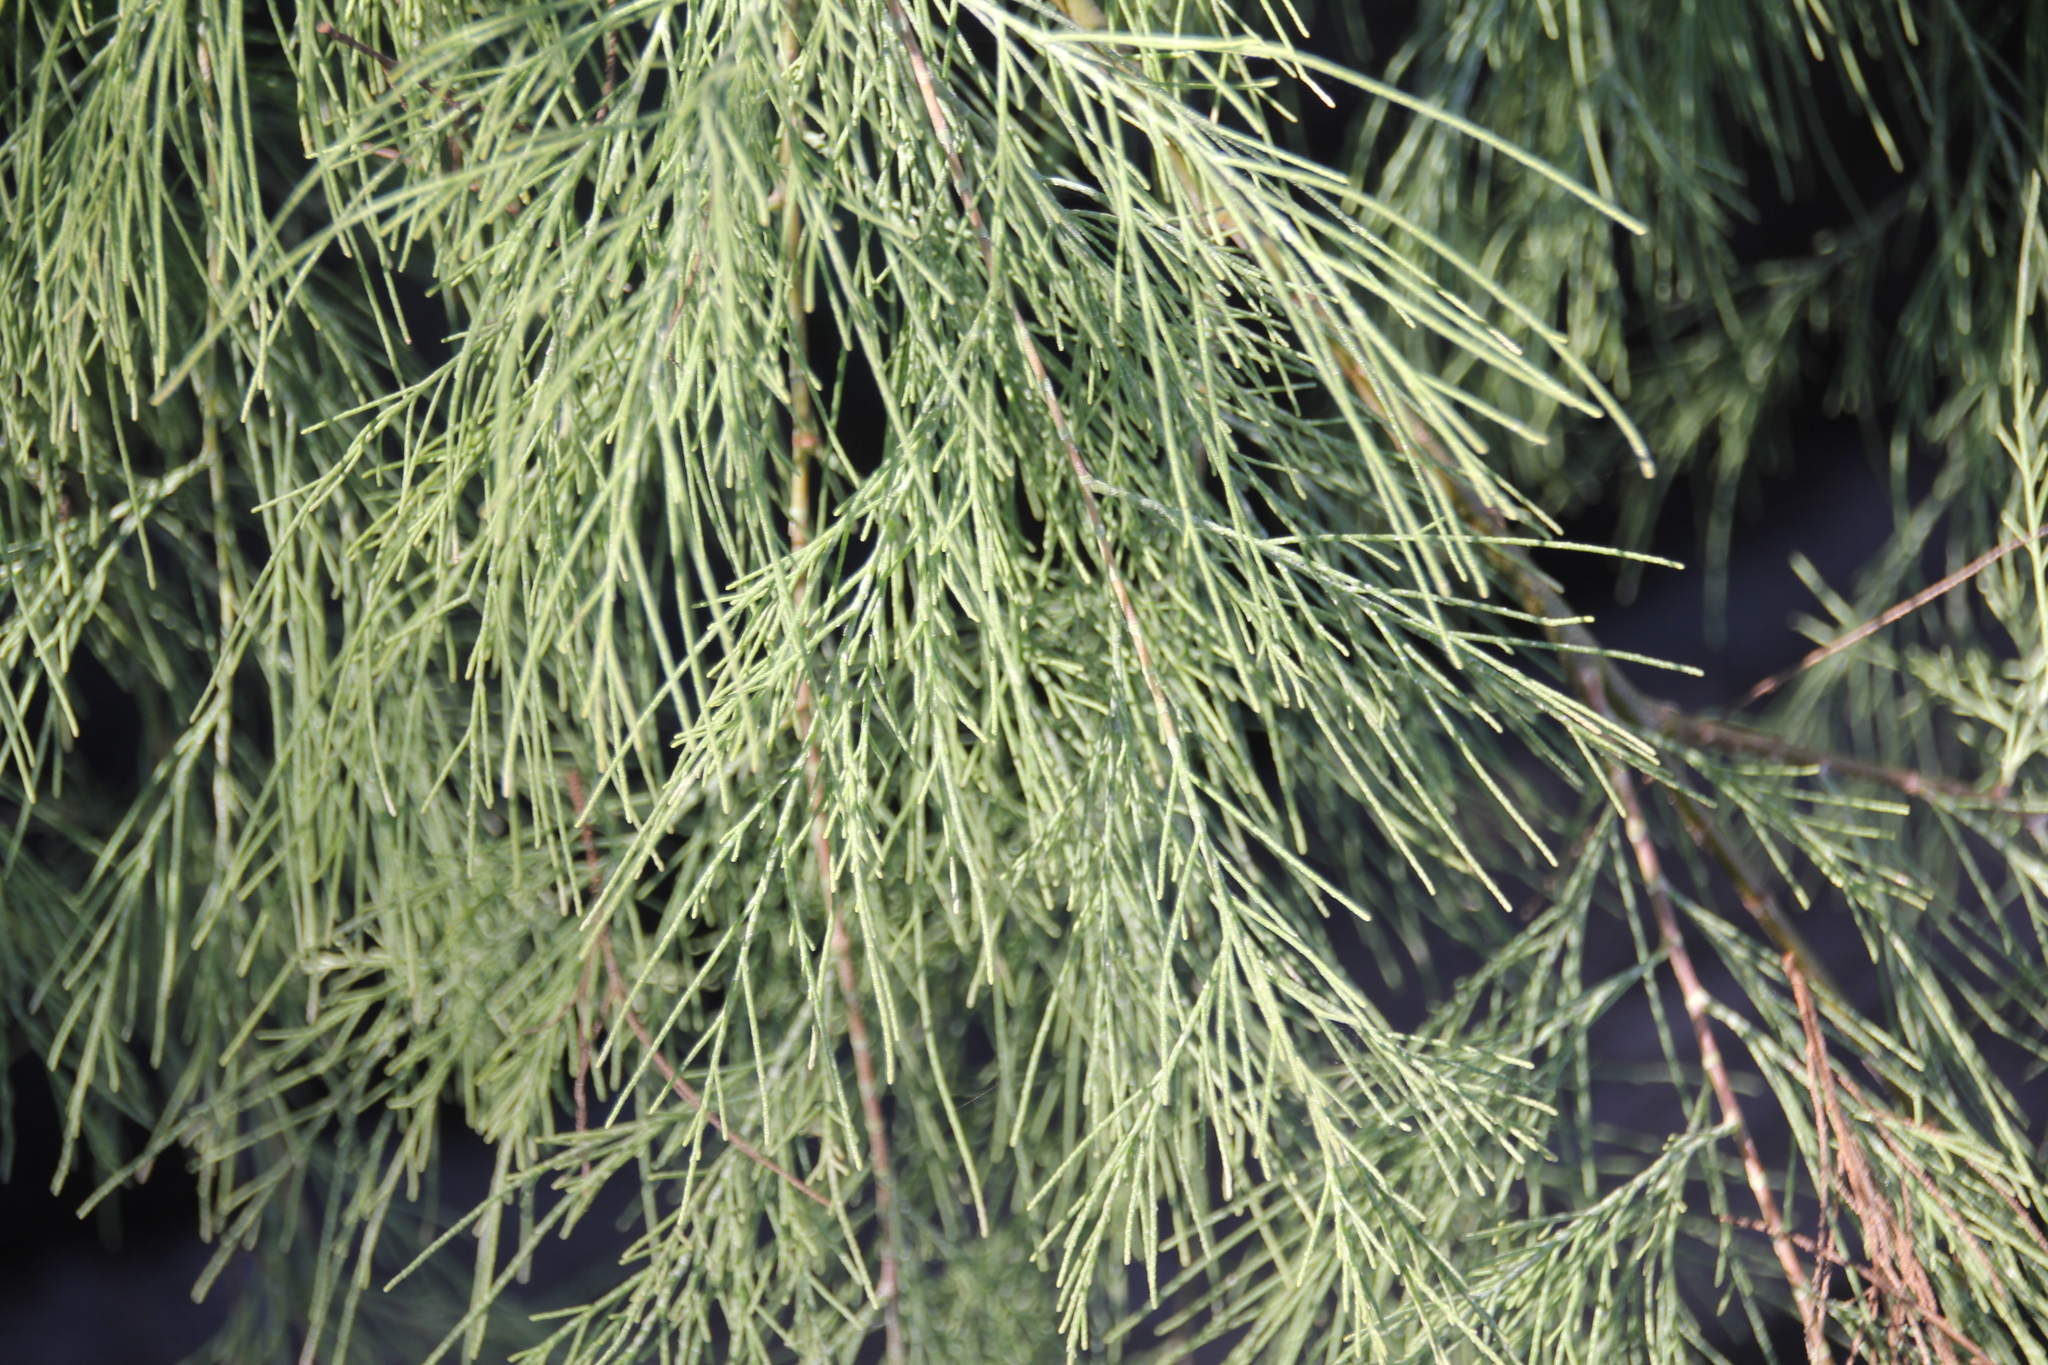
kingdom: Plantae
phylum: Tracheophyta
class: Magnoliopsida
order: Caryophyllales
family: Tamaricaceae
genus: Tamarix
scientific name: Tamarix aphylla
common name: Athel tamarisk
